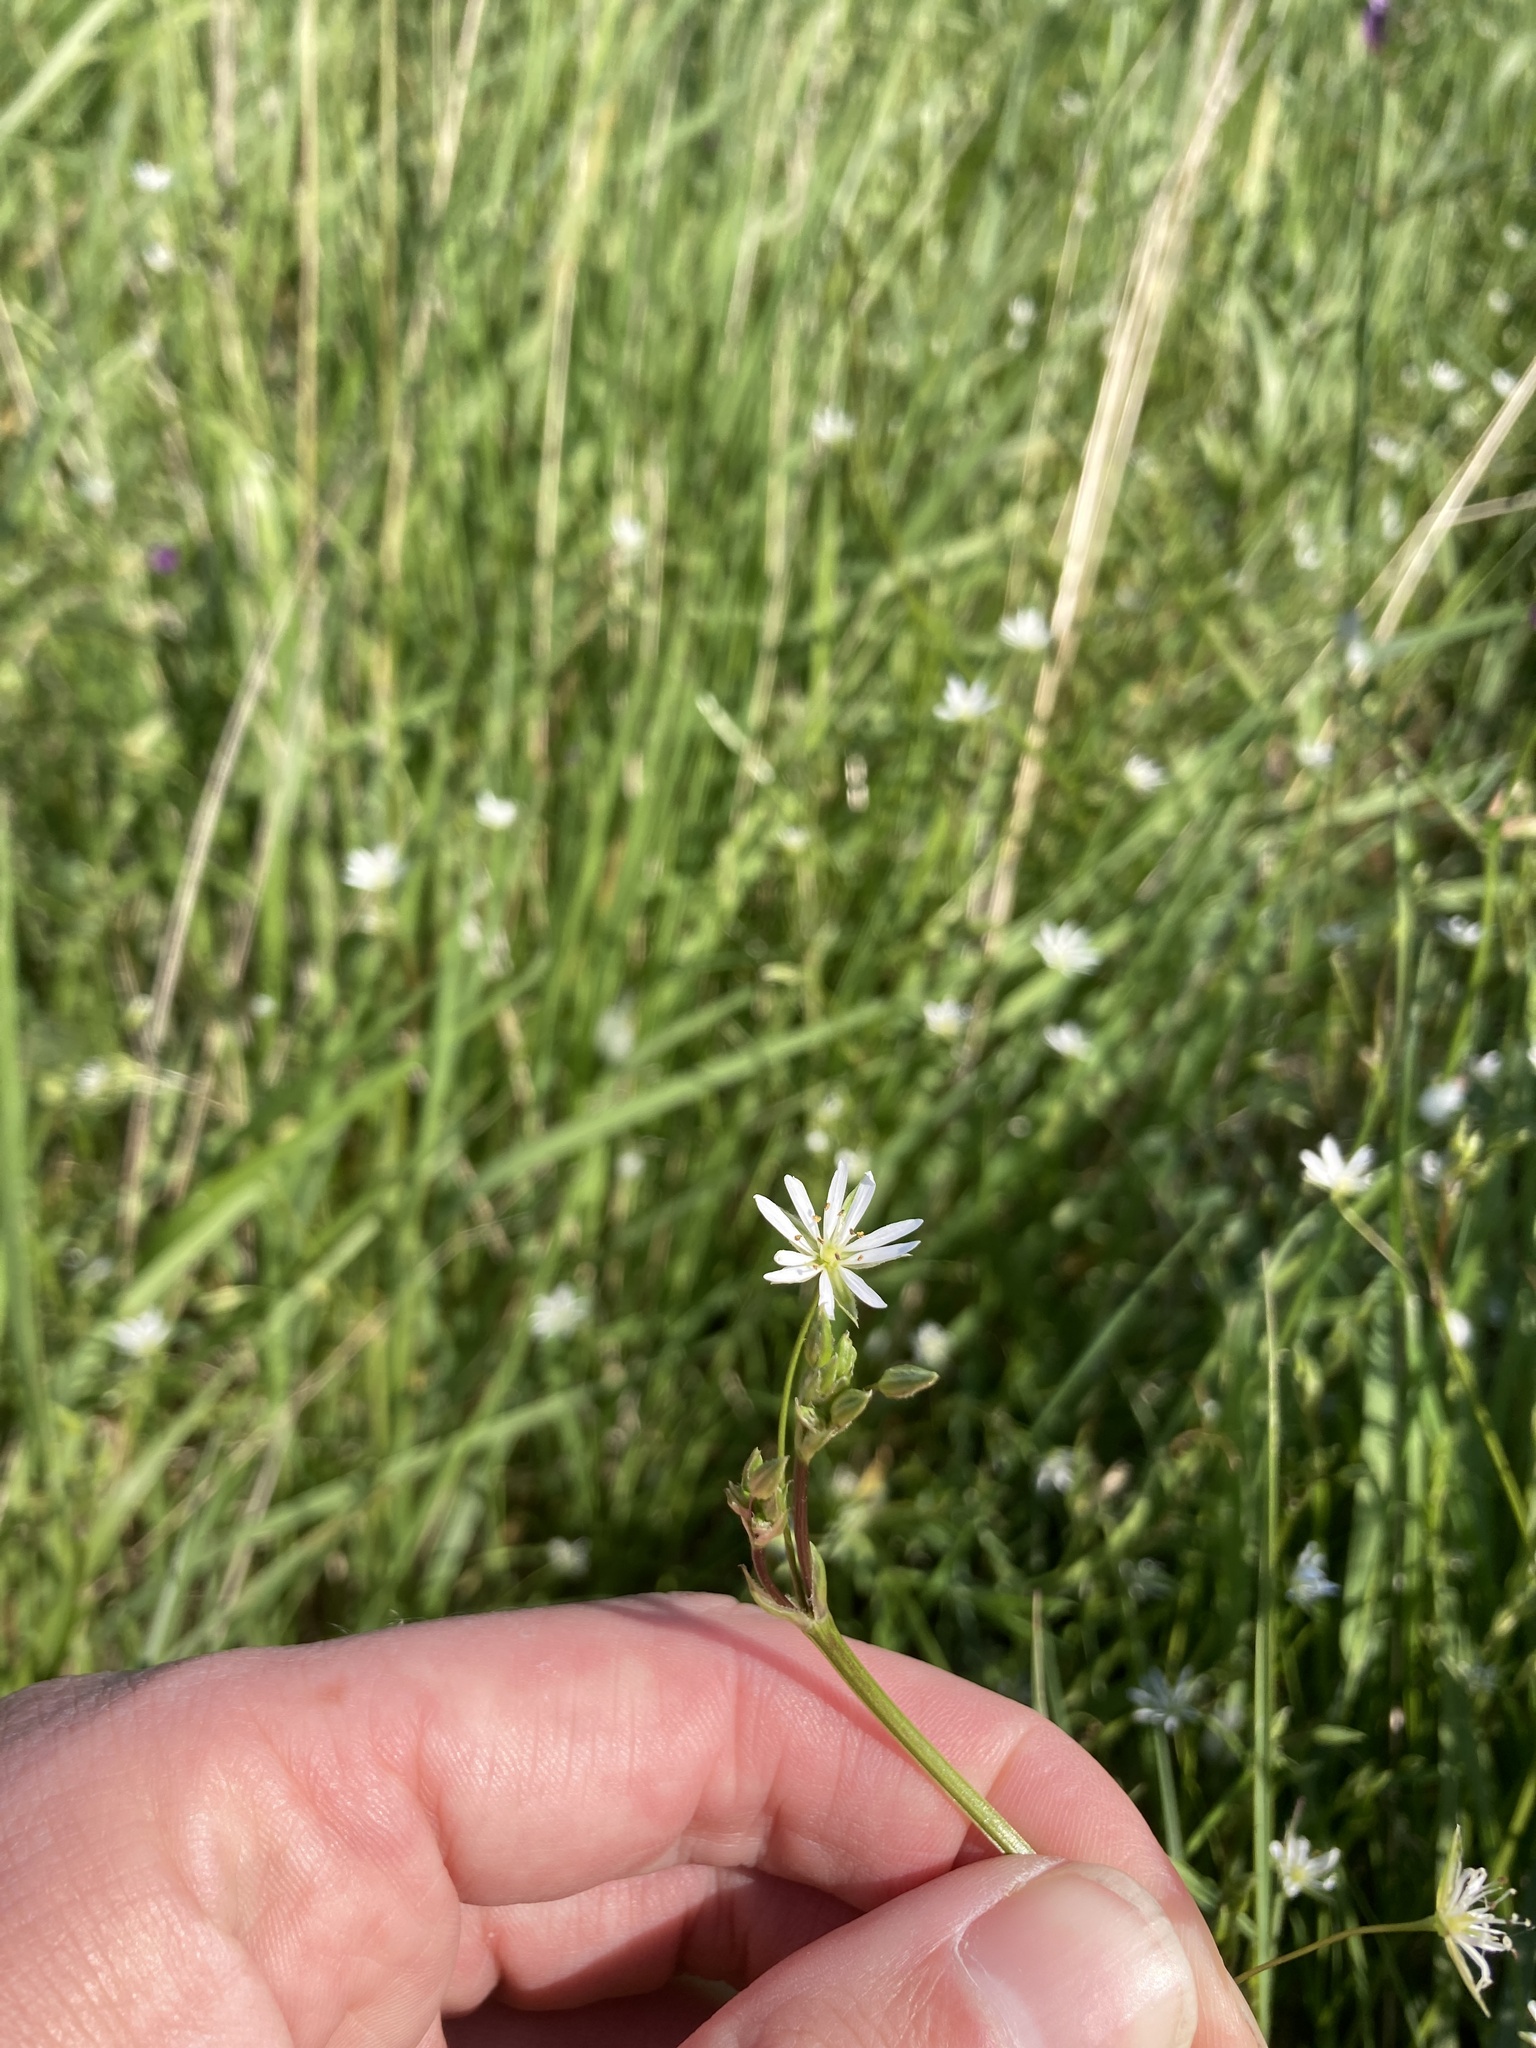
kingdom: Plantae
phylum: Tracheophyta
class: Magnoliopsida
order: Caryophyllales
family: Caryophyllaceae
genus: Stellaria
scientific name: Stellaria graminea
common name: Grass-like starwort
